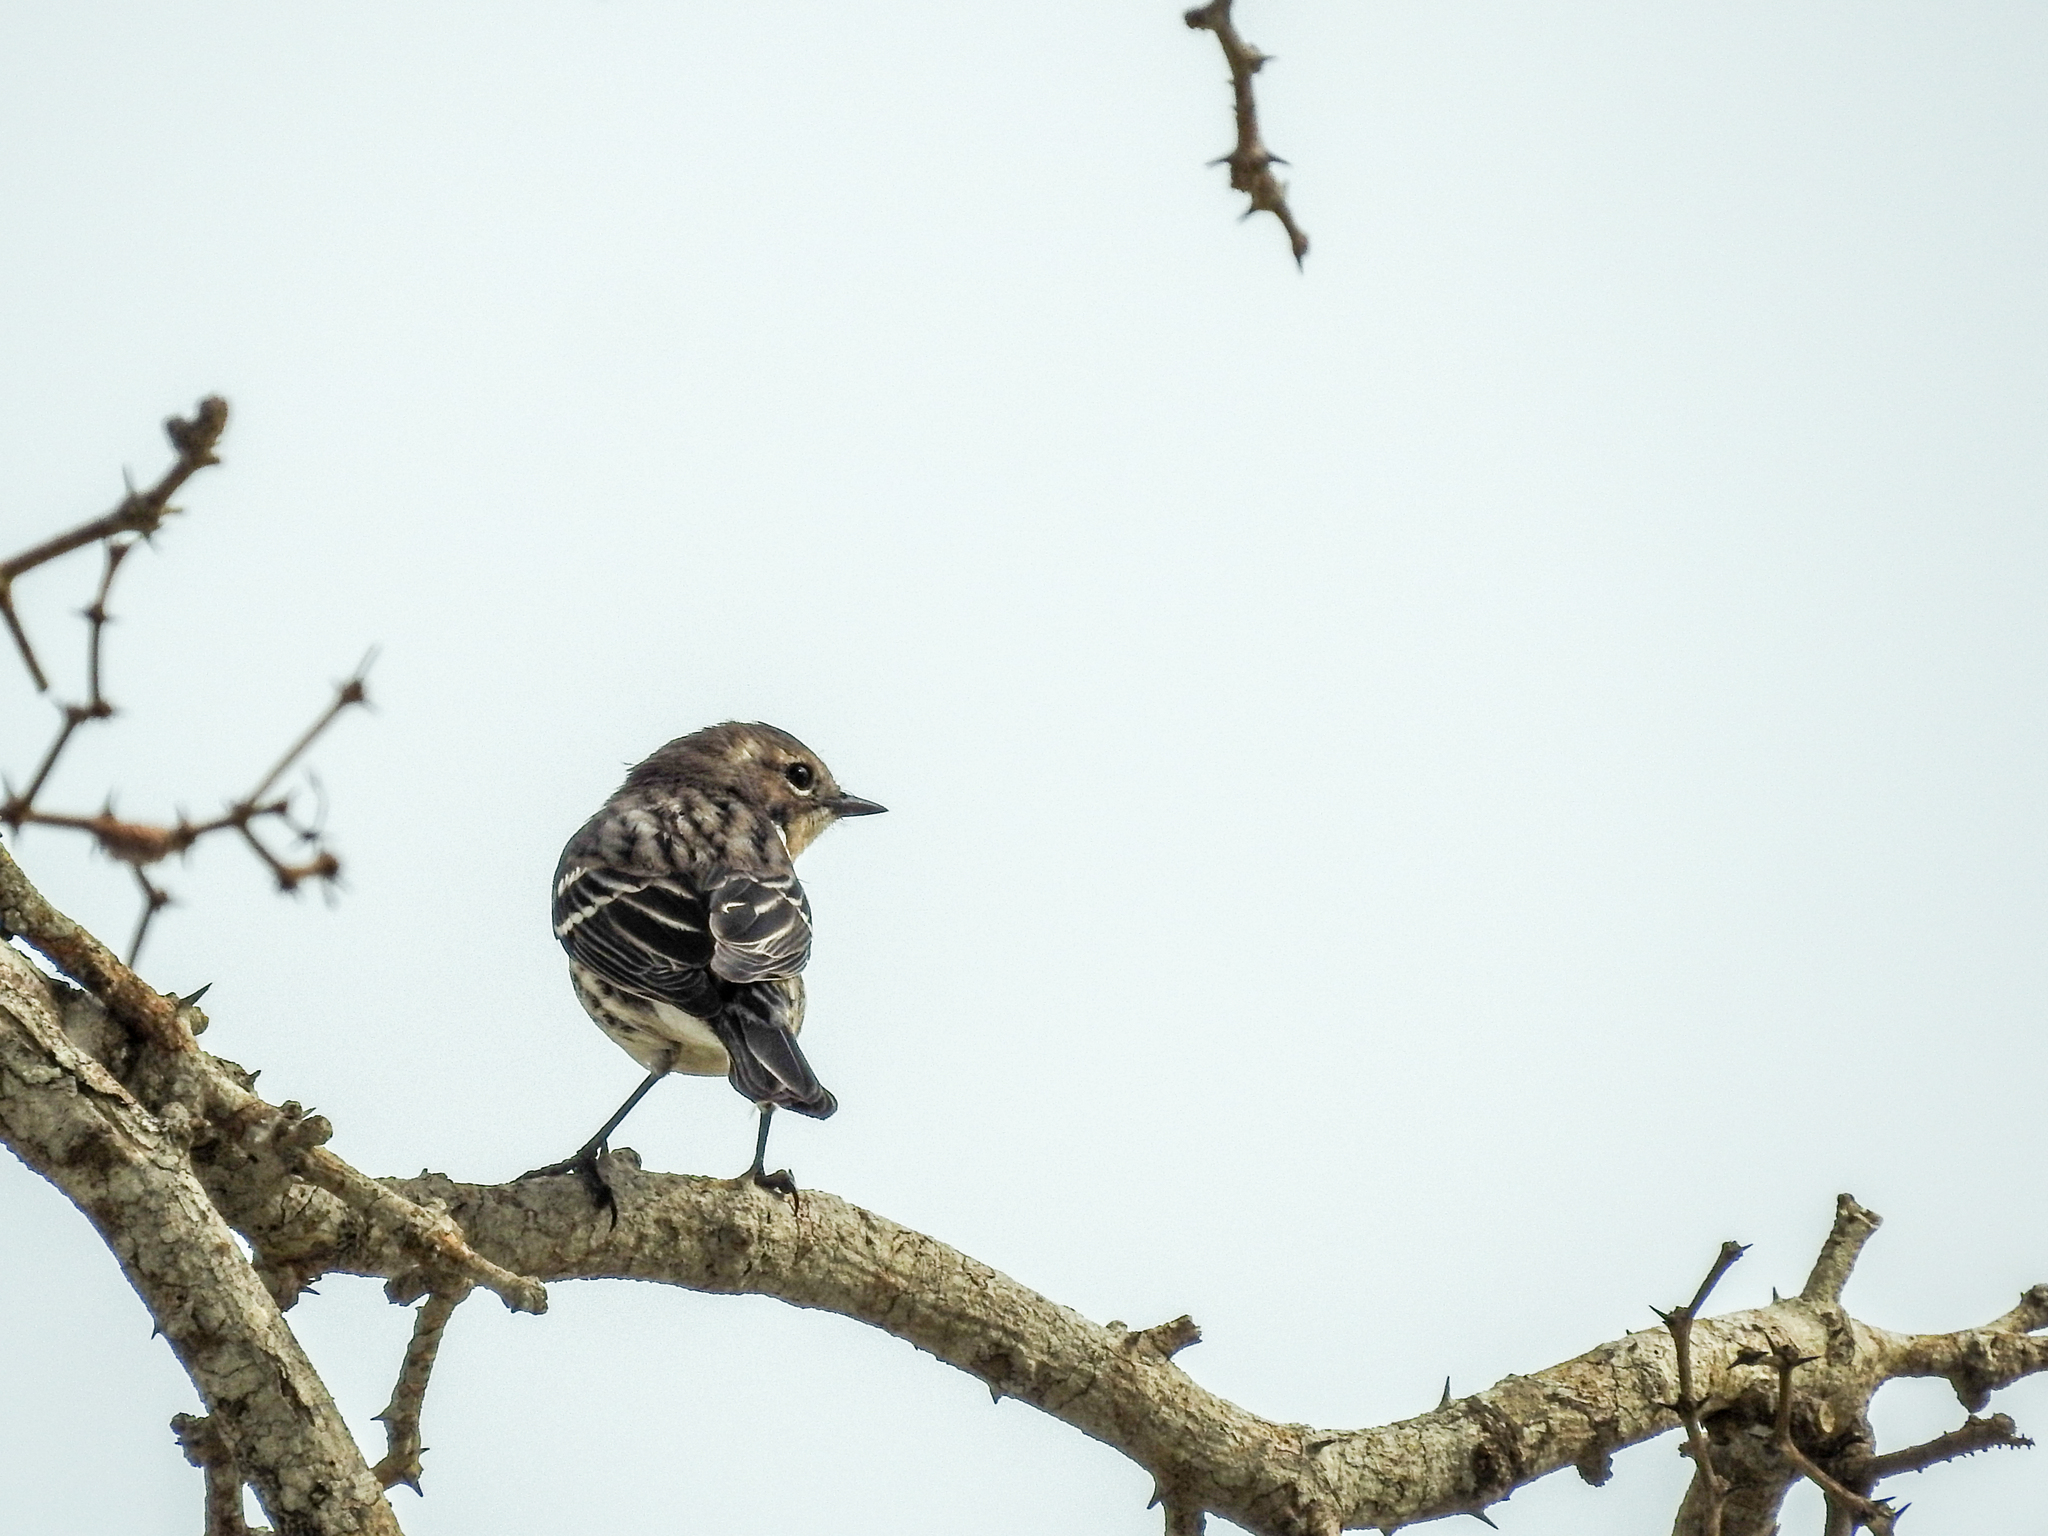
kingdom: Animalia
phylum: Chordata
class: Aves
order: Passeriformes
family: Parulidae
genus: Setophaga
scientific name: Setophaga coronata
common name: Myrtle warbler
